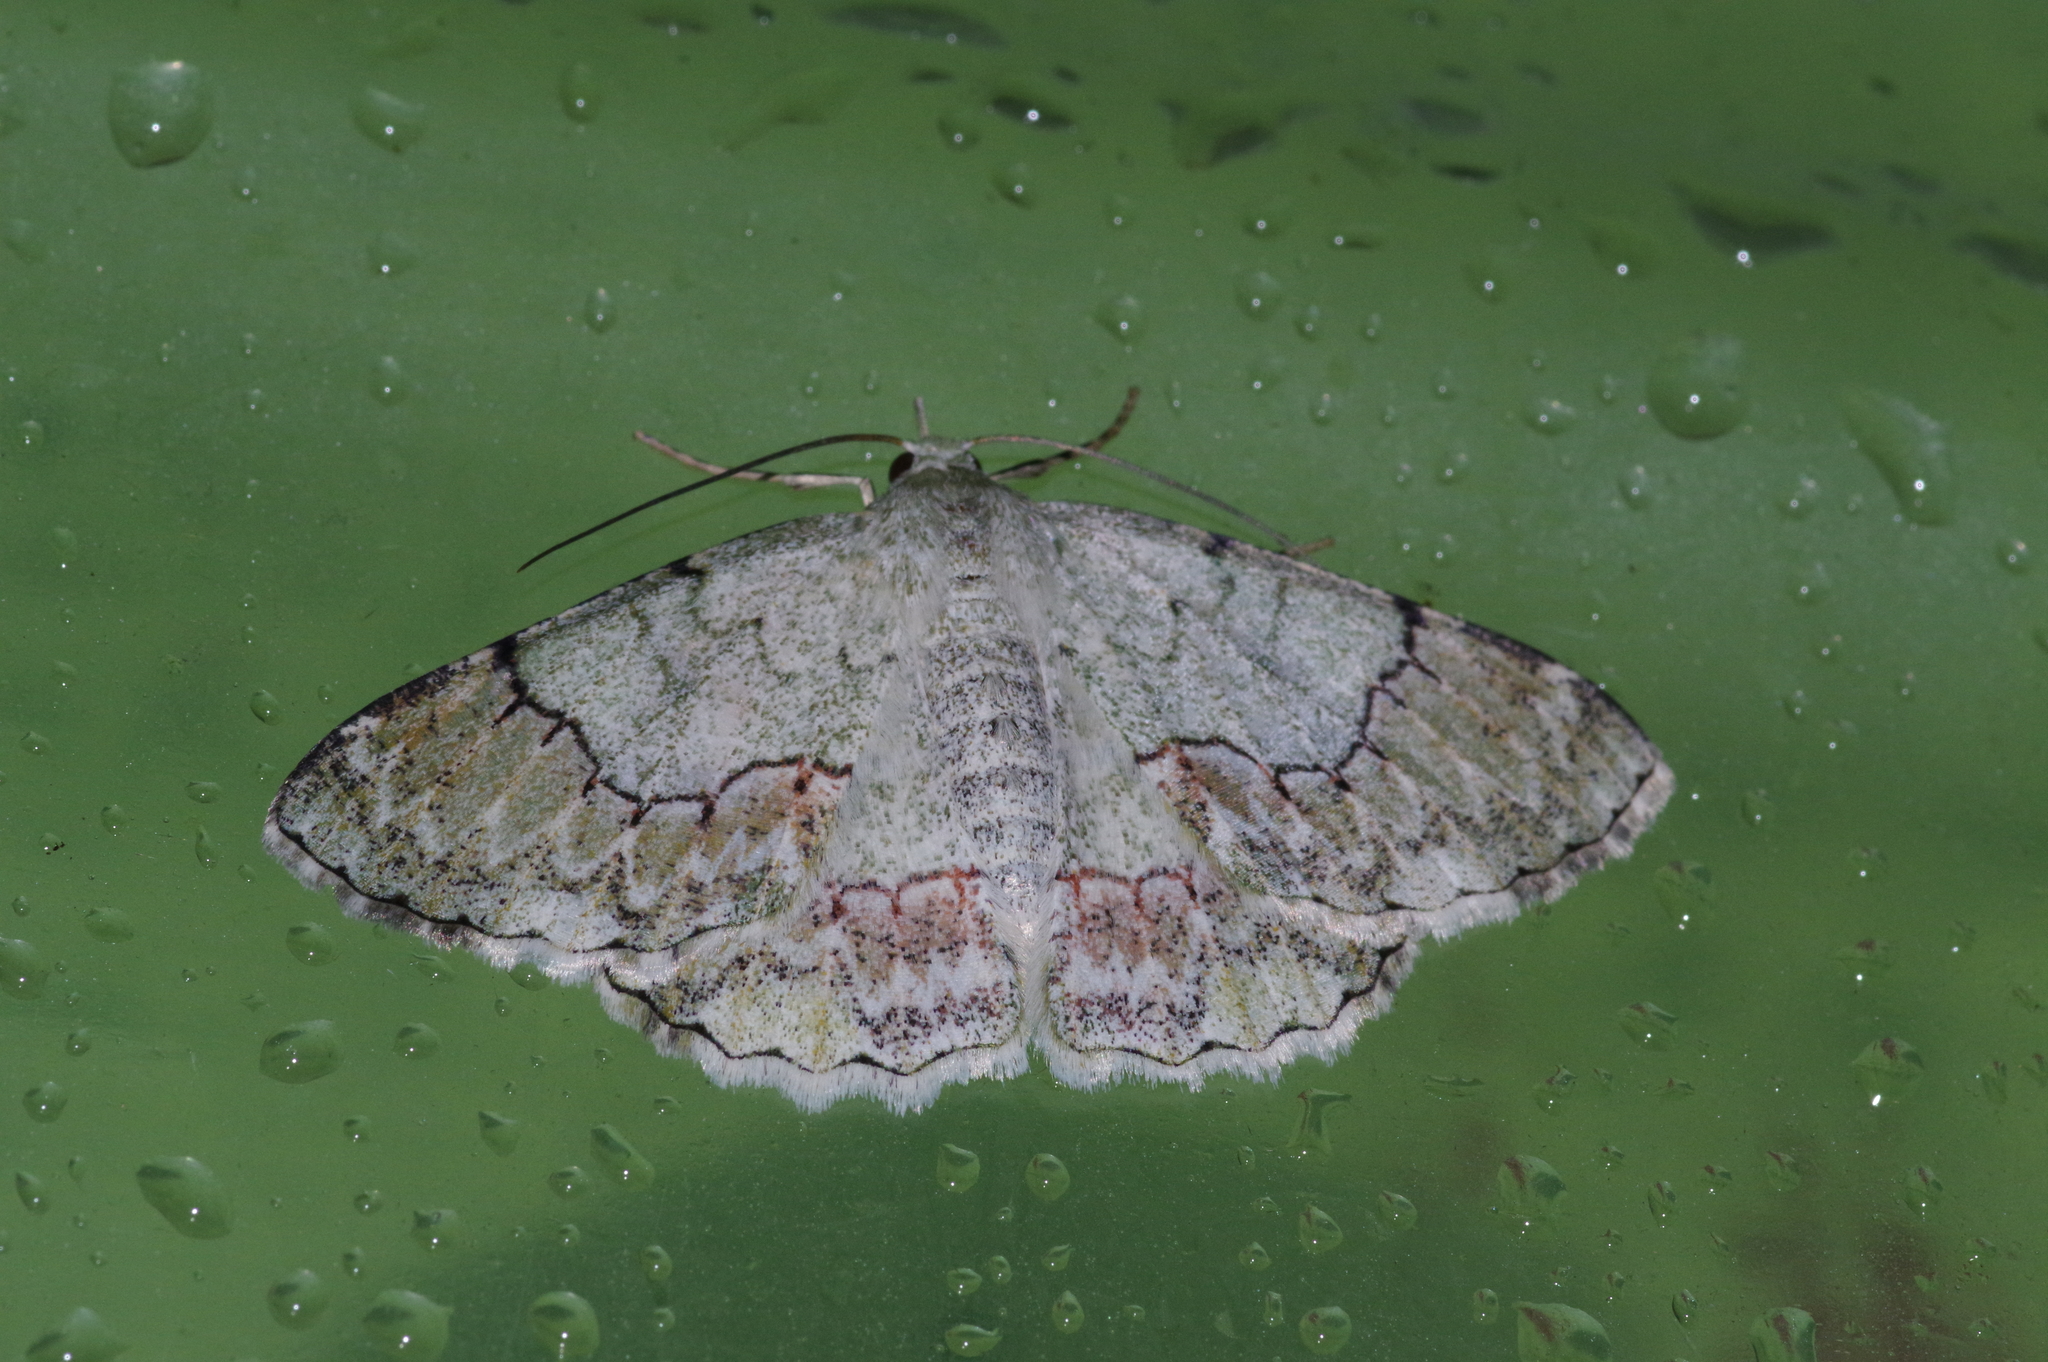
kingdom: Animalia
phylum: Arthropoda
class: Insecta
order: Lepidoptera
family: Geometridae
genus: Pingasa
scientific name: Pingasa ruginaria
